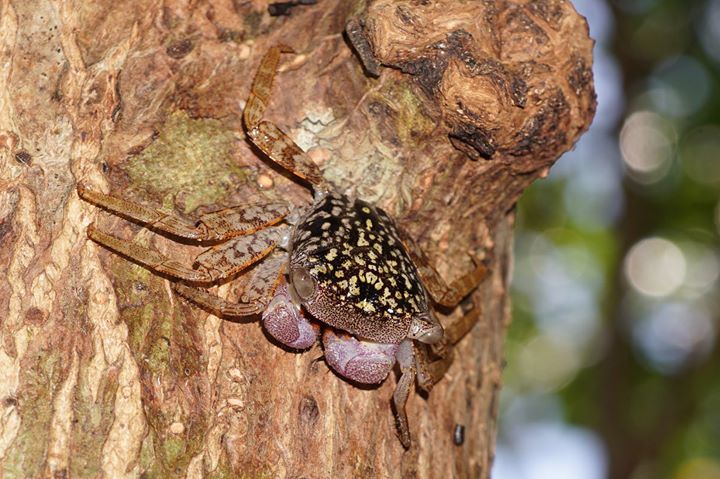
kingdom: Animalia
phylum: Arthropoda
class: Malacostraca
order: Decapoda
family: Sesarmidae
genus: Aratus
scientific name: Aratus pisonii
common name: Mangrove crab
